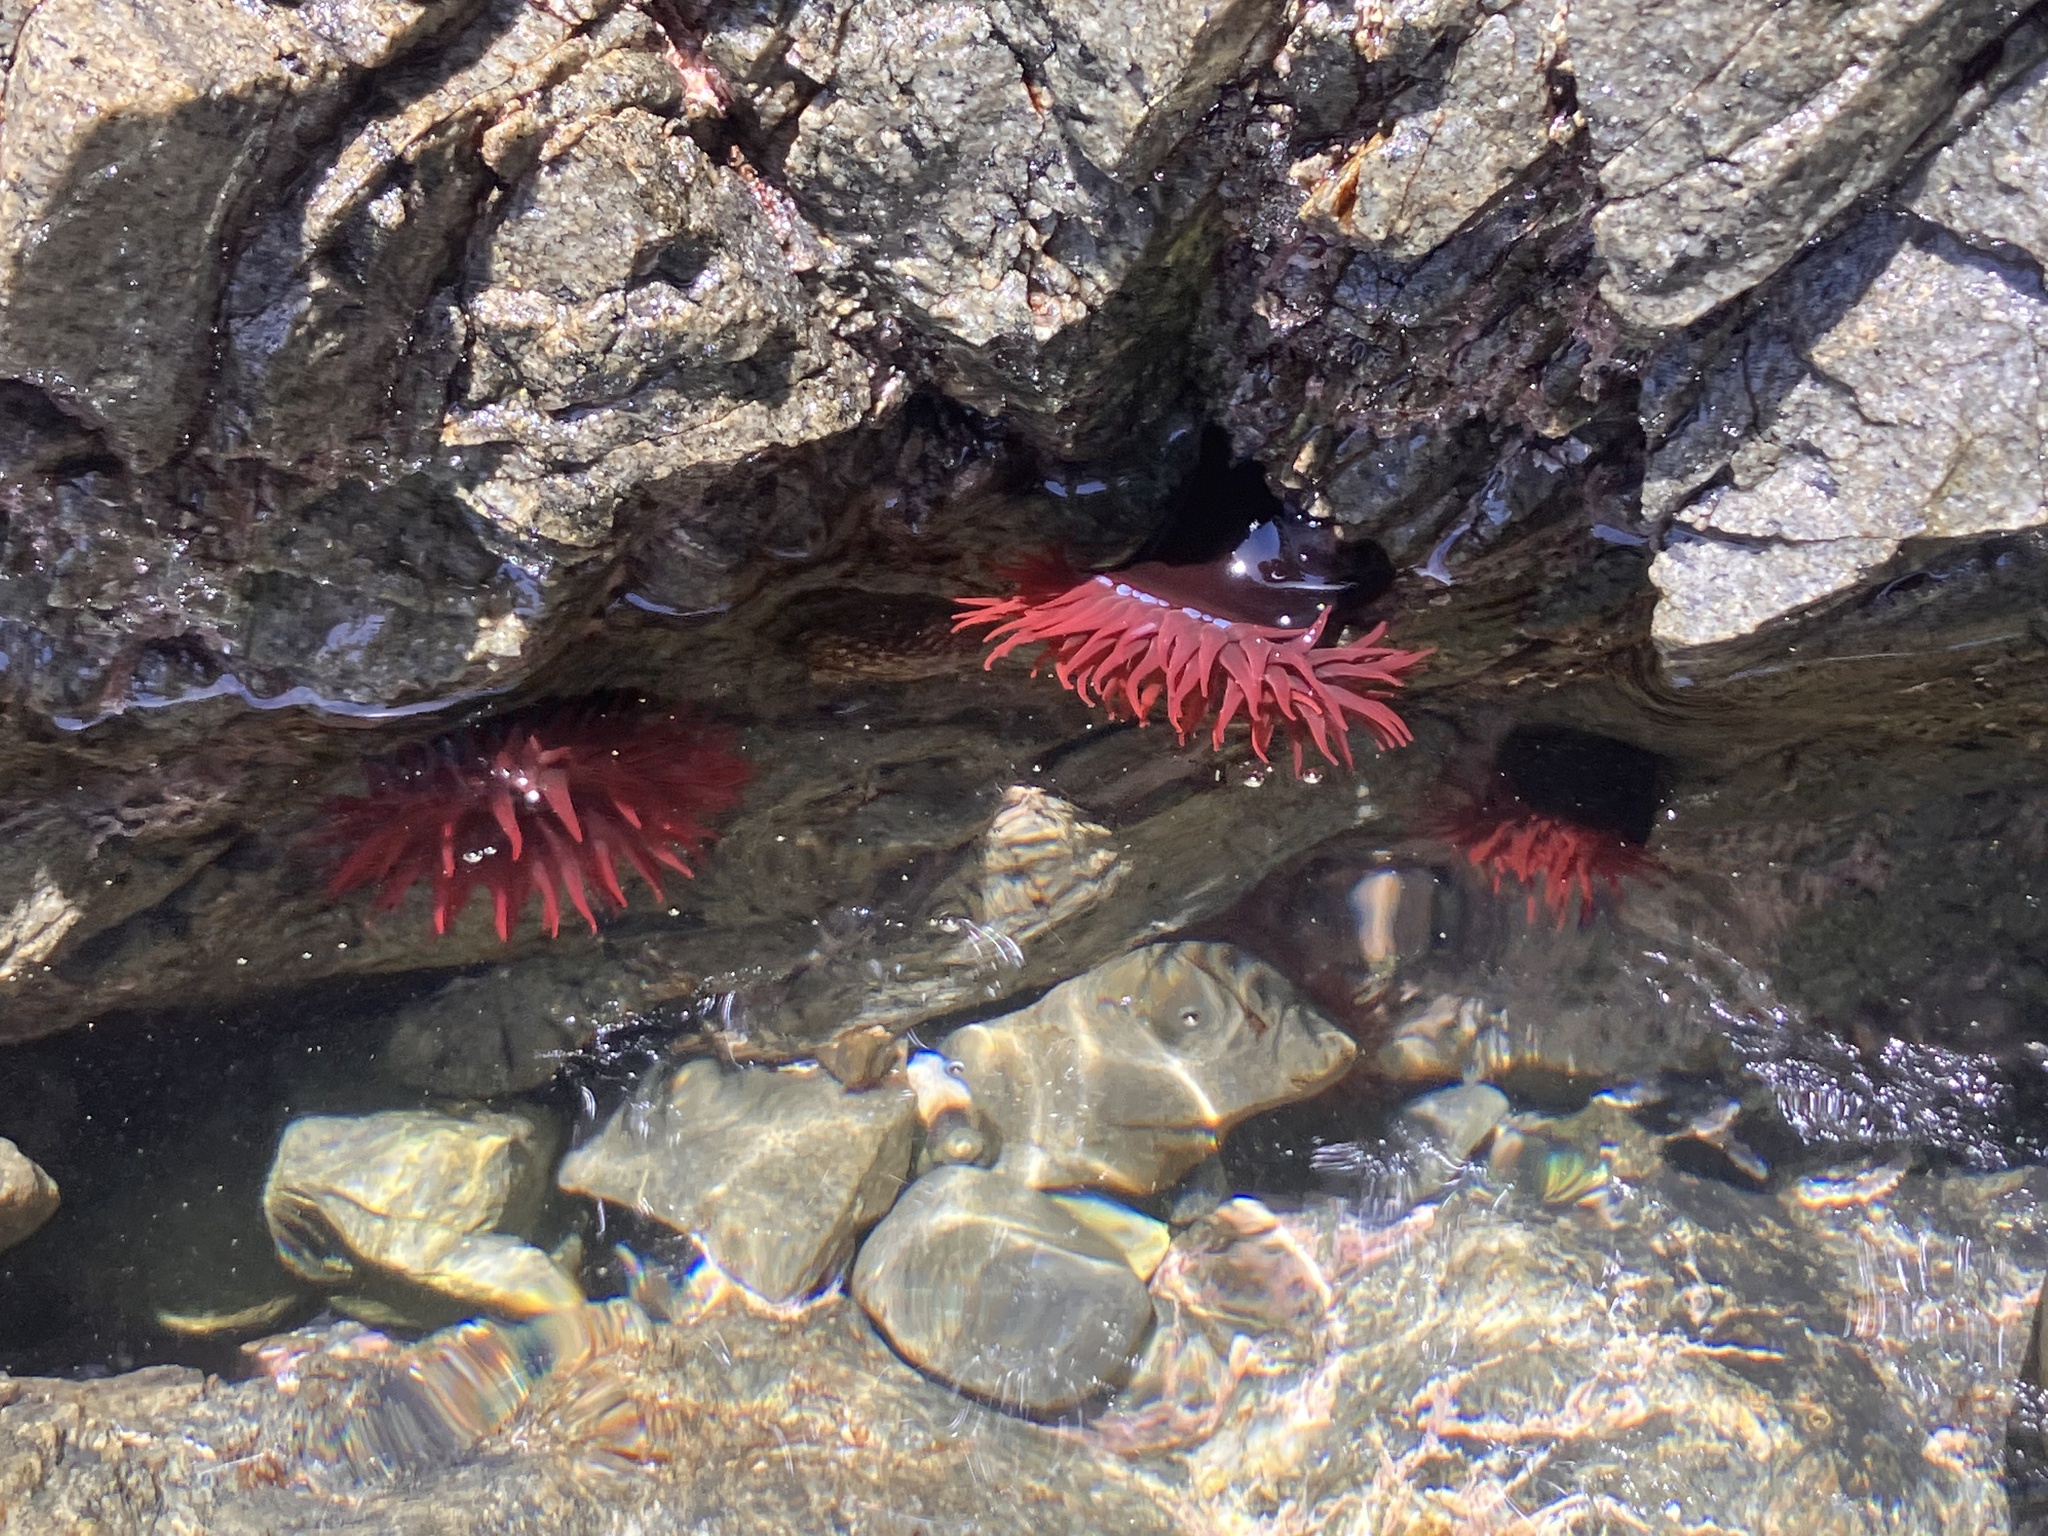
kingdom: Animalia
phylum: Cnidaria
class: Anthozoa
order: Actiniaria
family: Actiniidae
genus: Actinia
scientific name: Actinia tenebrosa
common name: Waratah anemone
